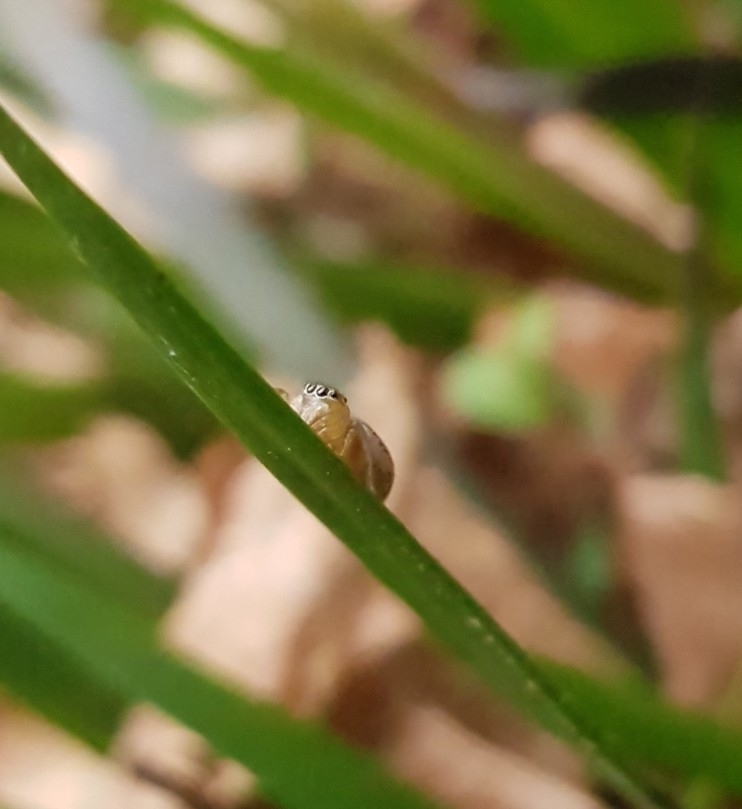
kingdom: Animalia
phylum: Arthropoda
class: Arachnida
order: Araneae
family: Salticidae
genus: Maratus
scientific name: Maratus scutulatus
